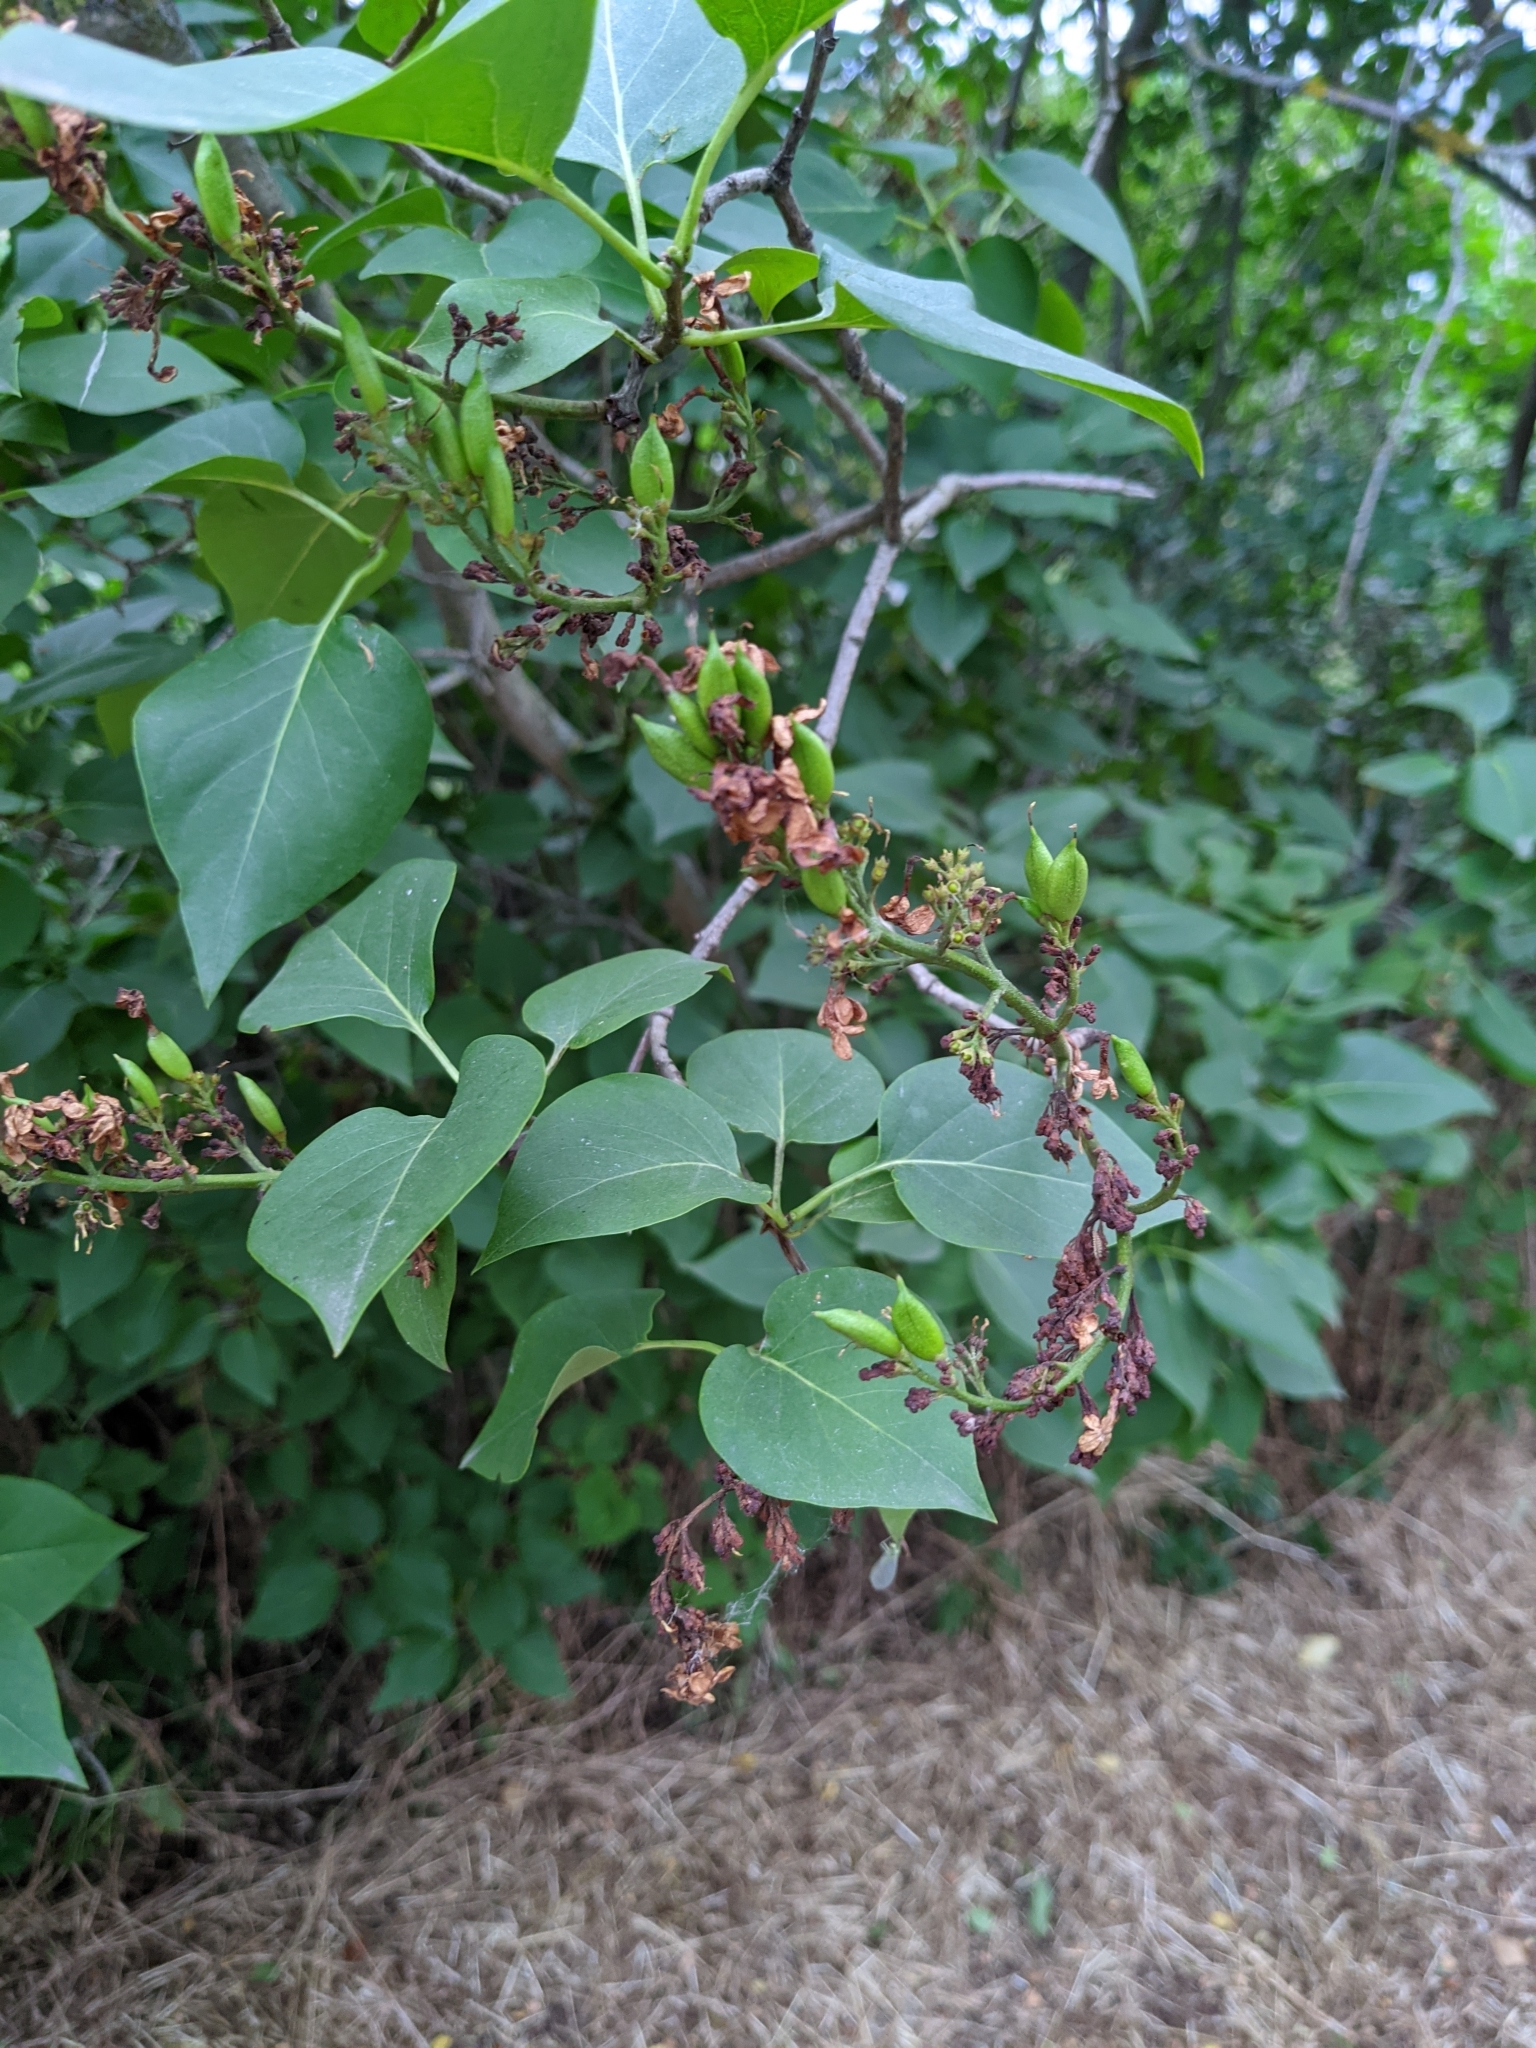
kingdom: Plantae
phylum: Tracheophyta
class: Magnoliopsida
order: Lamiales
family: Oleaceae
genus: Syringa
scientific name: Syringa vulgaris
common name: Common lilac
